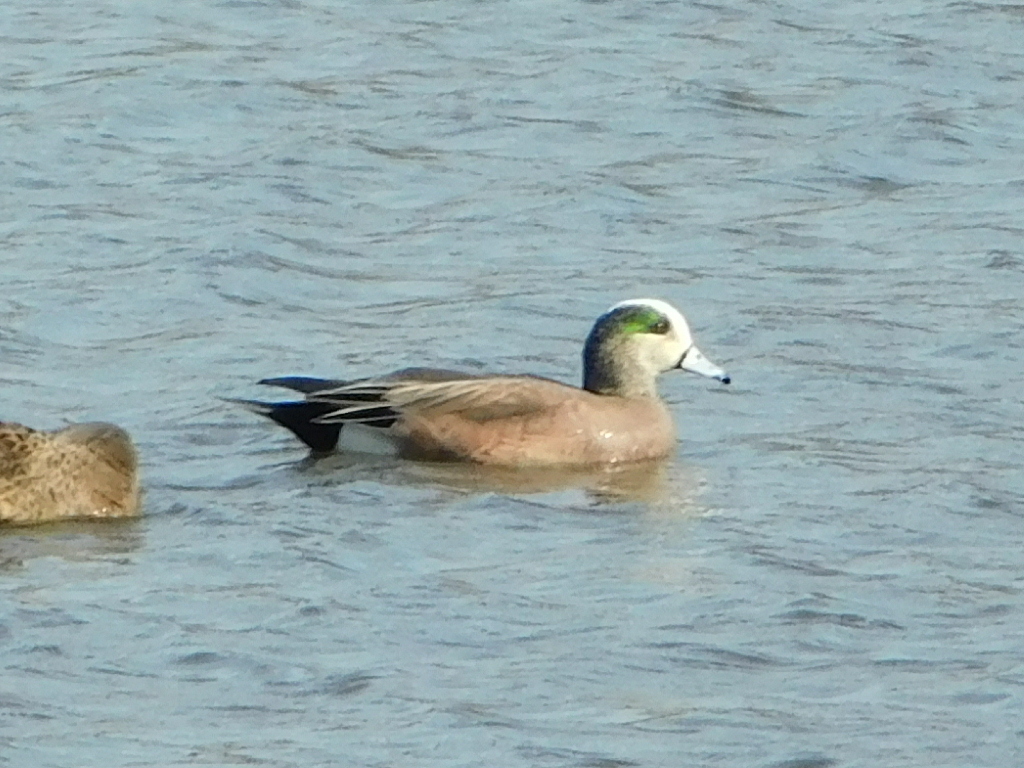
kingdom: Animalia
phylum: Chordata
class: Aves
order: Anseriformes
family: Anatidae
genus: Mareca
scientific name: Mareca americana
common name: American wigeon
